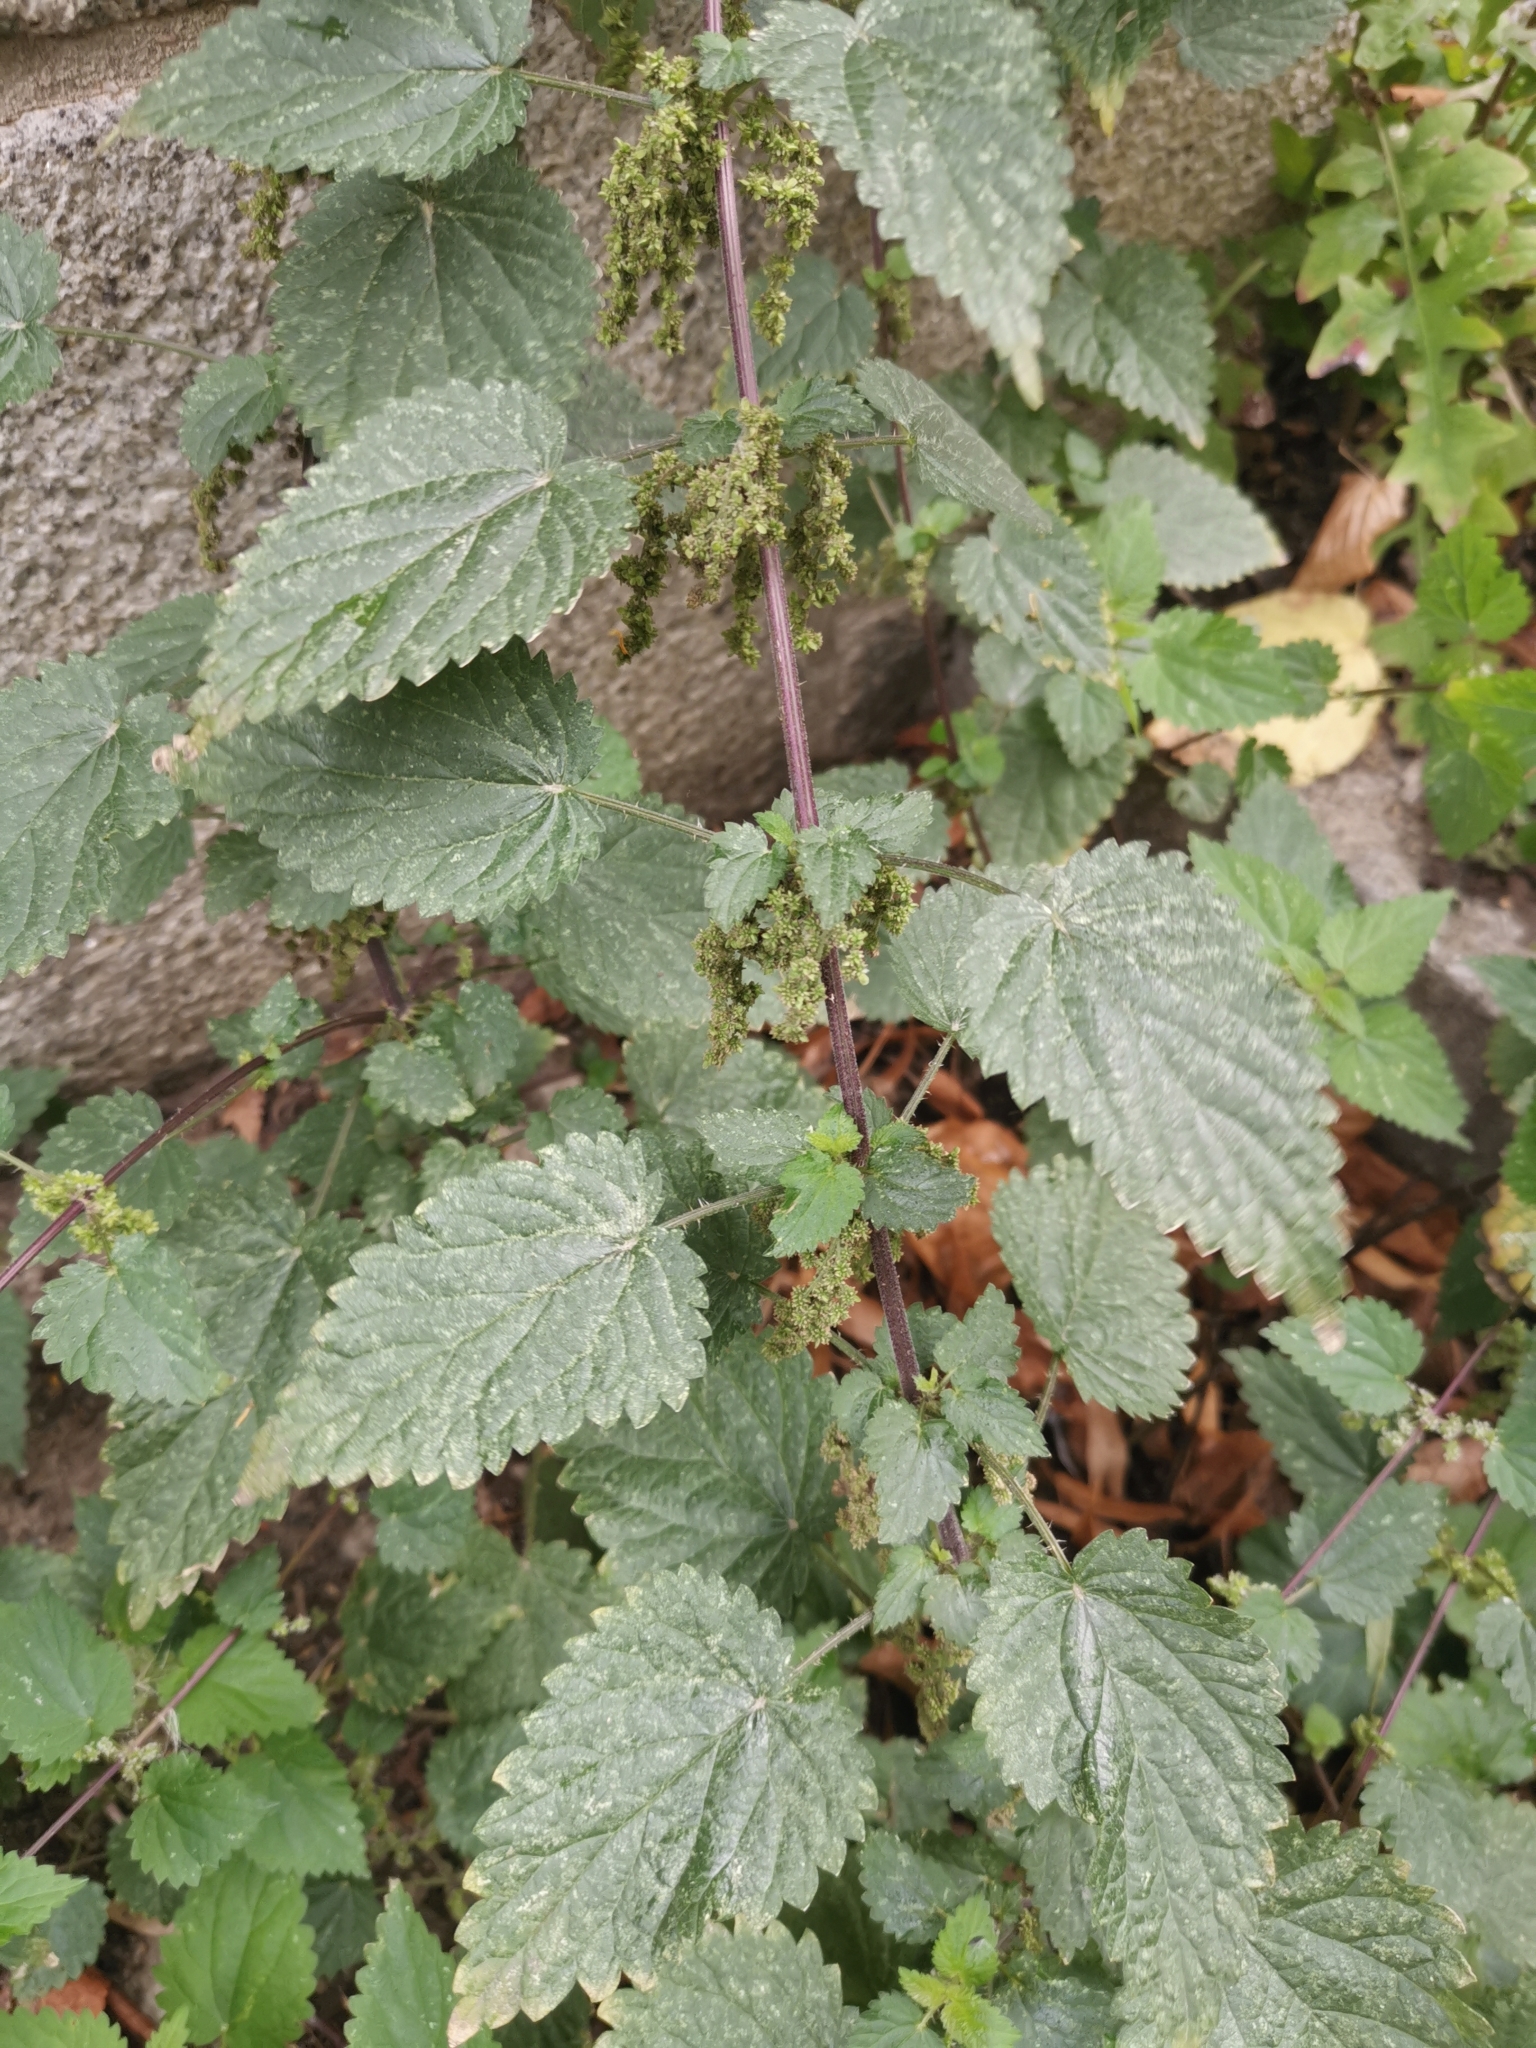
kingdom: Plantae
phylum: Tracheophyta
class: Magnoliopsida
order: Rosales
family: Urticaceae
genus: Urtica
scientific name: Urtica dioica
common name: Common nettle
